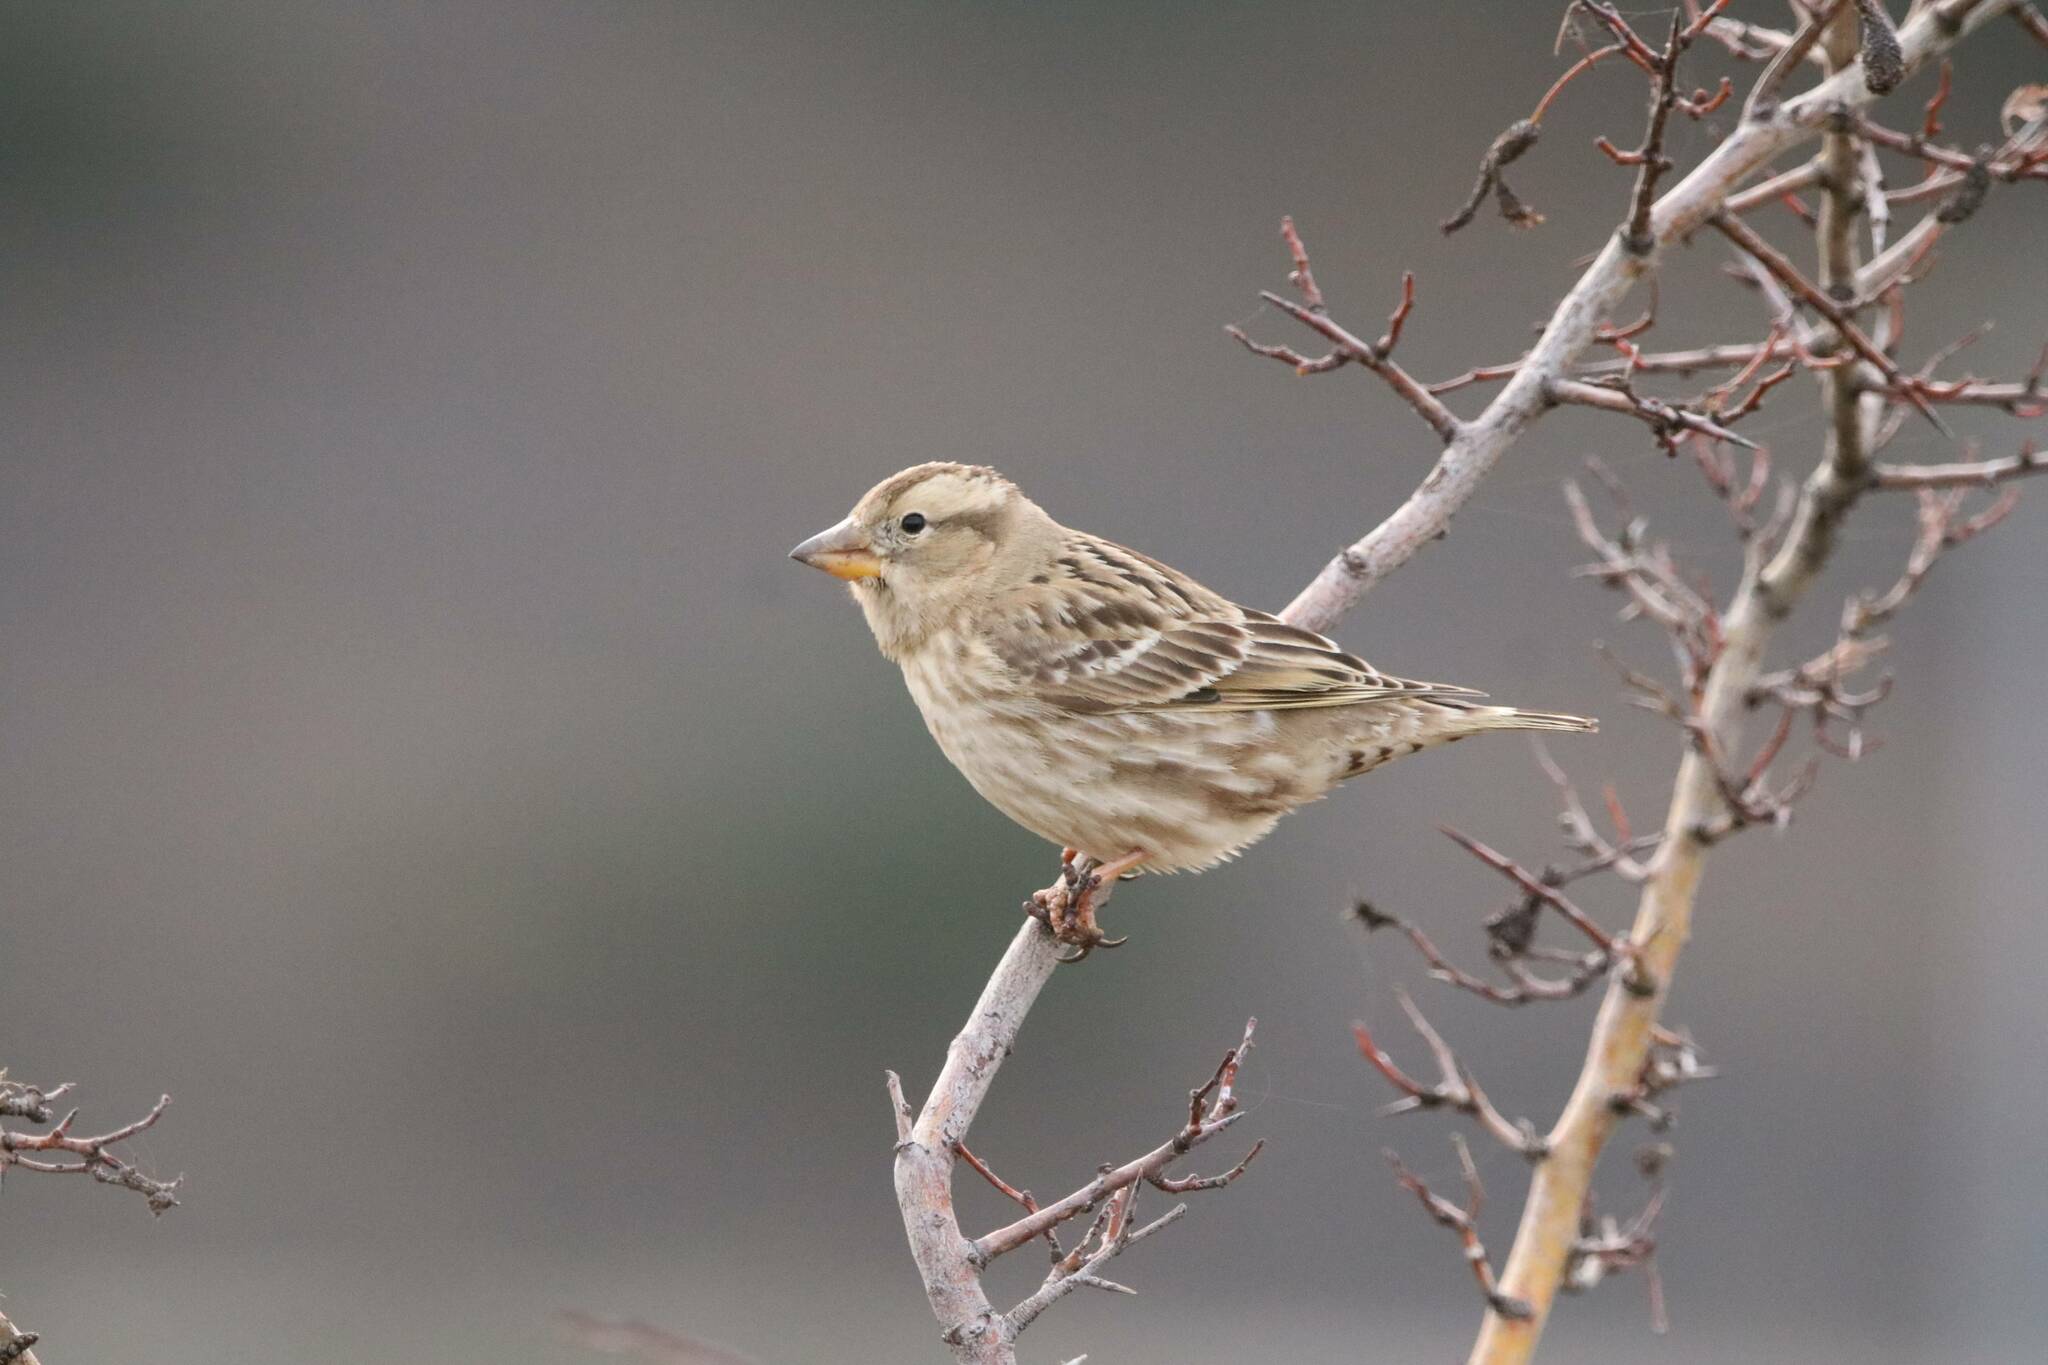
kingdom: Animalia
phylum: Chordata
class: Aves
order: Passeriformes
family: Passeridae
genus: Petronia
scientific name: Petronia petronia
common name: Rock sparrow
